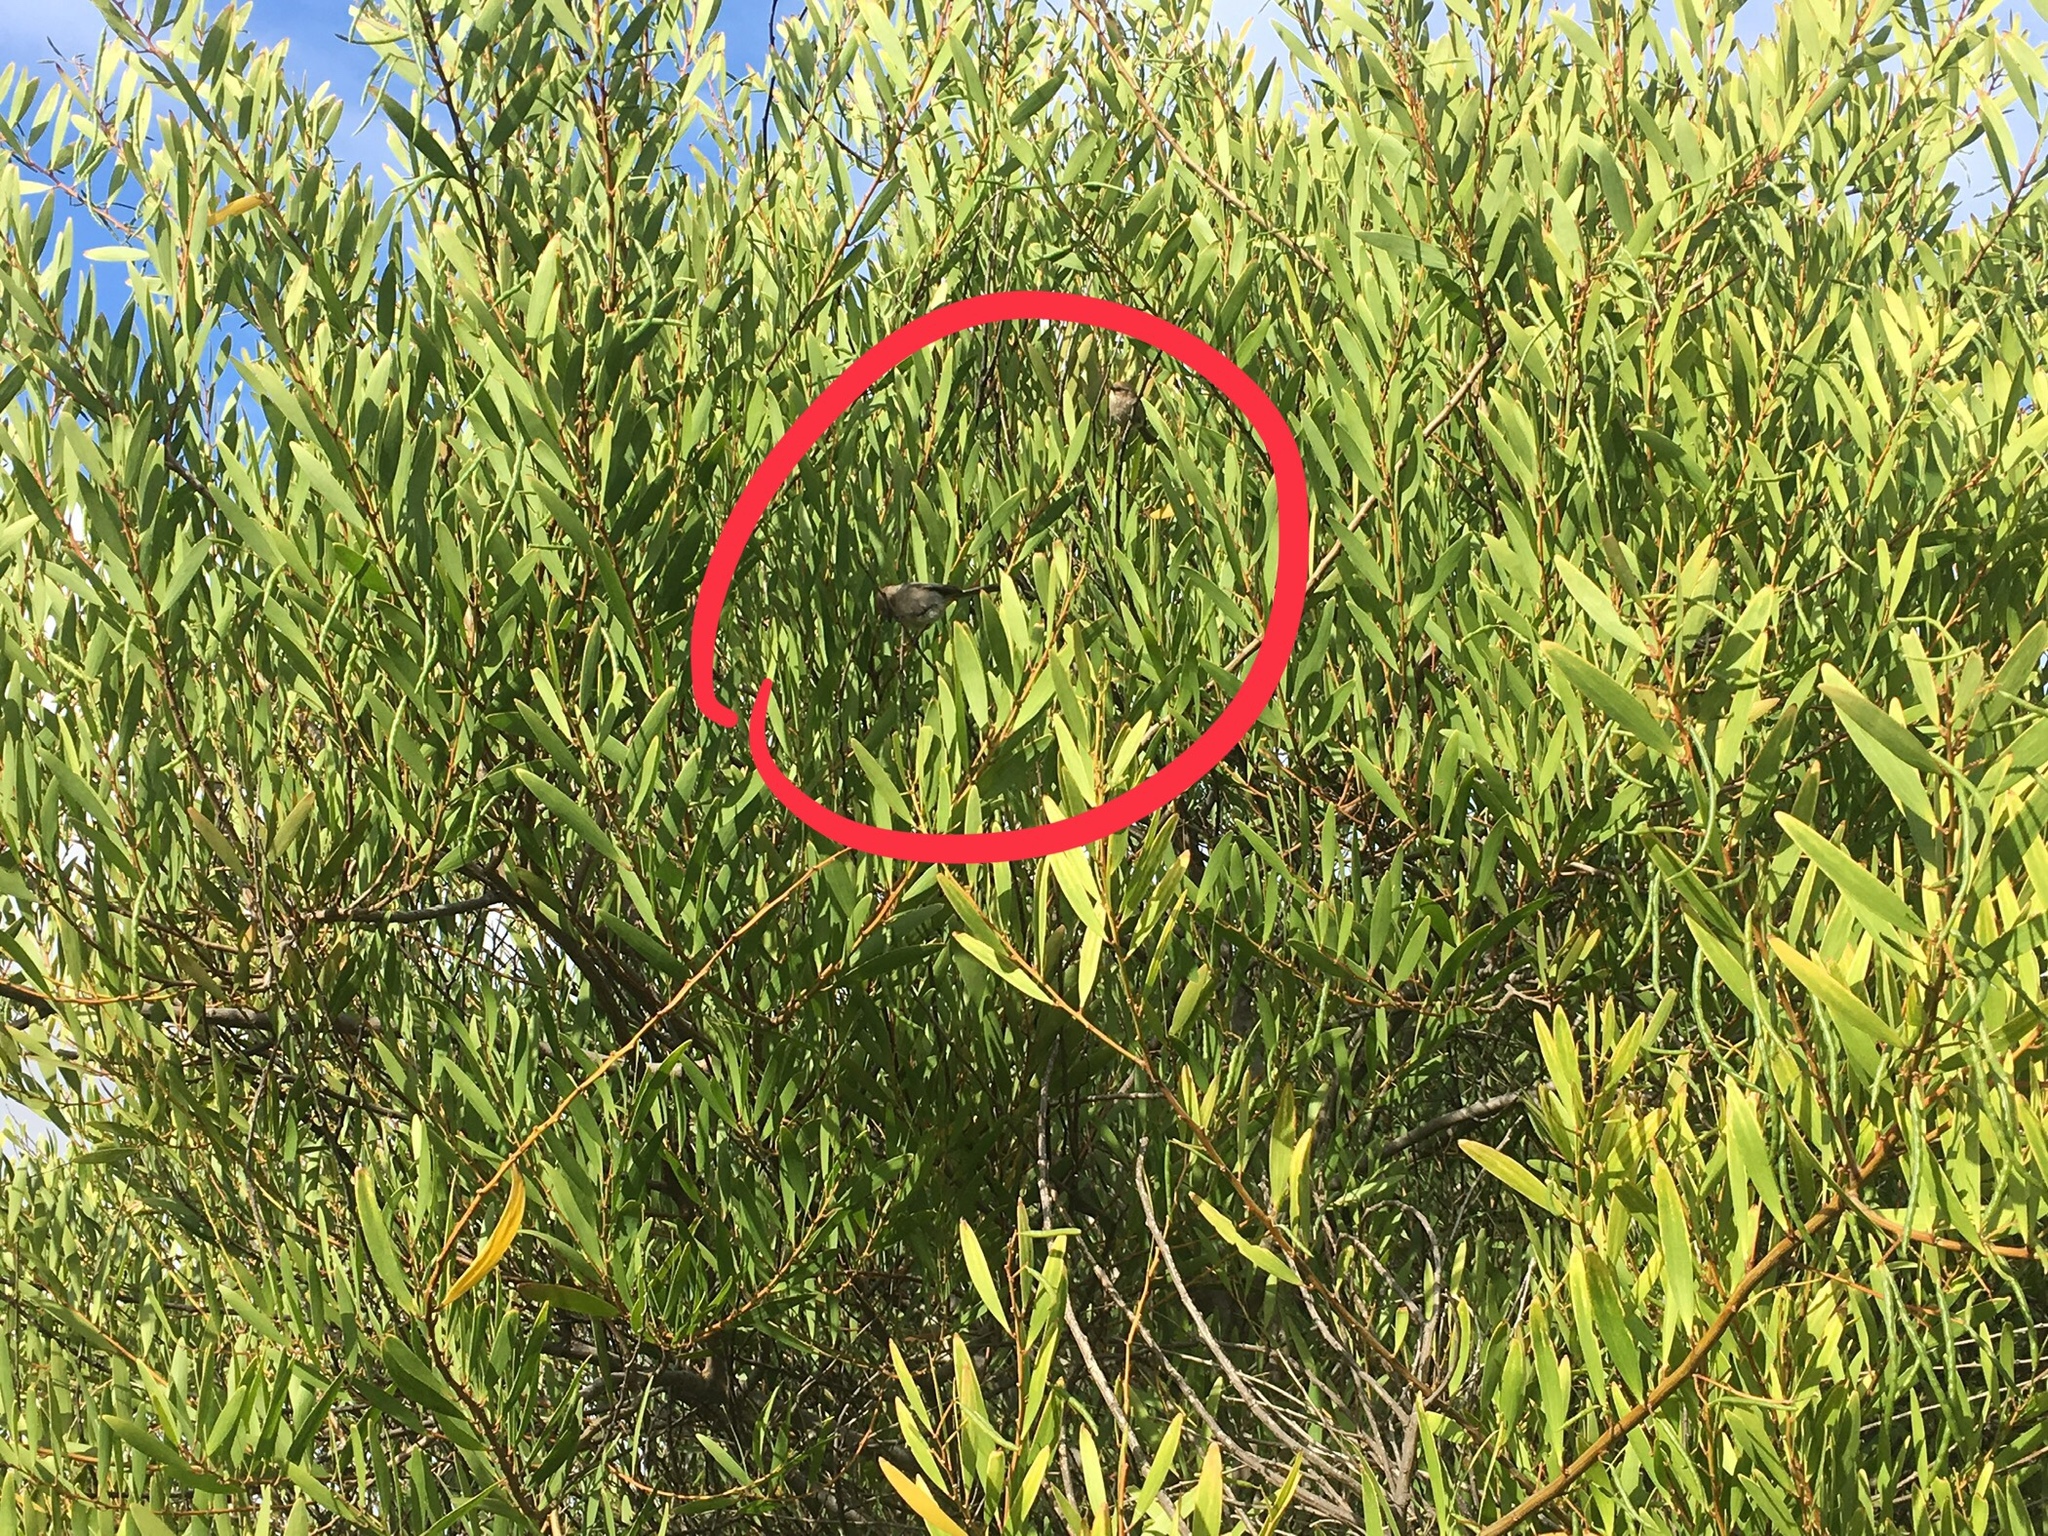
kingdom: Animalia
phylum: Chordata
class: Aves
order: Passeriformes
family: Aegithalidae
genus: Psaltriparus
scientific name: Psaltriparus minimus
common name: American bushtit
